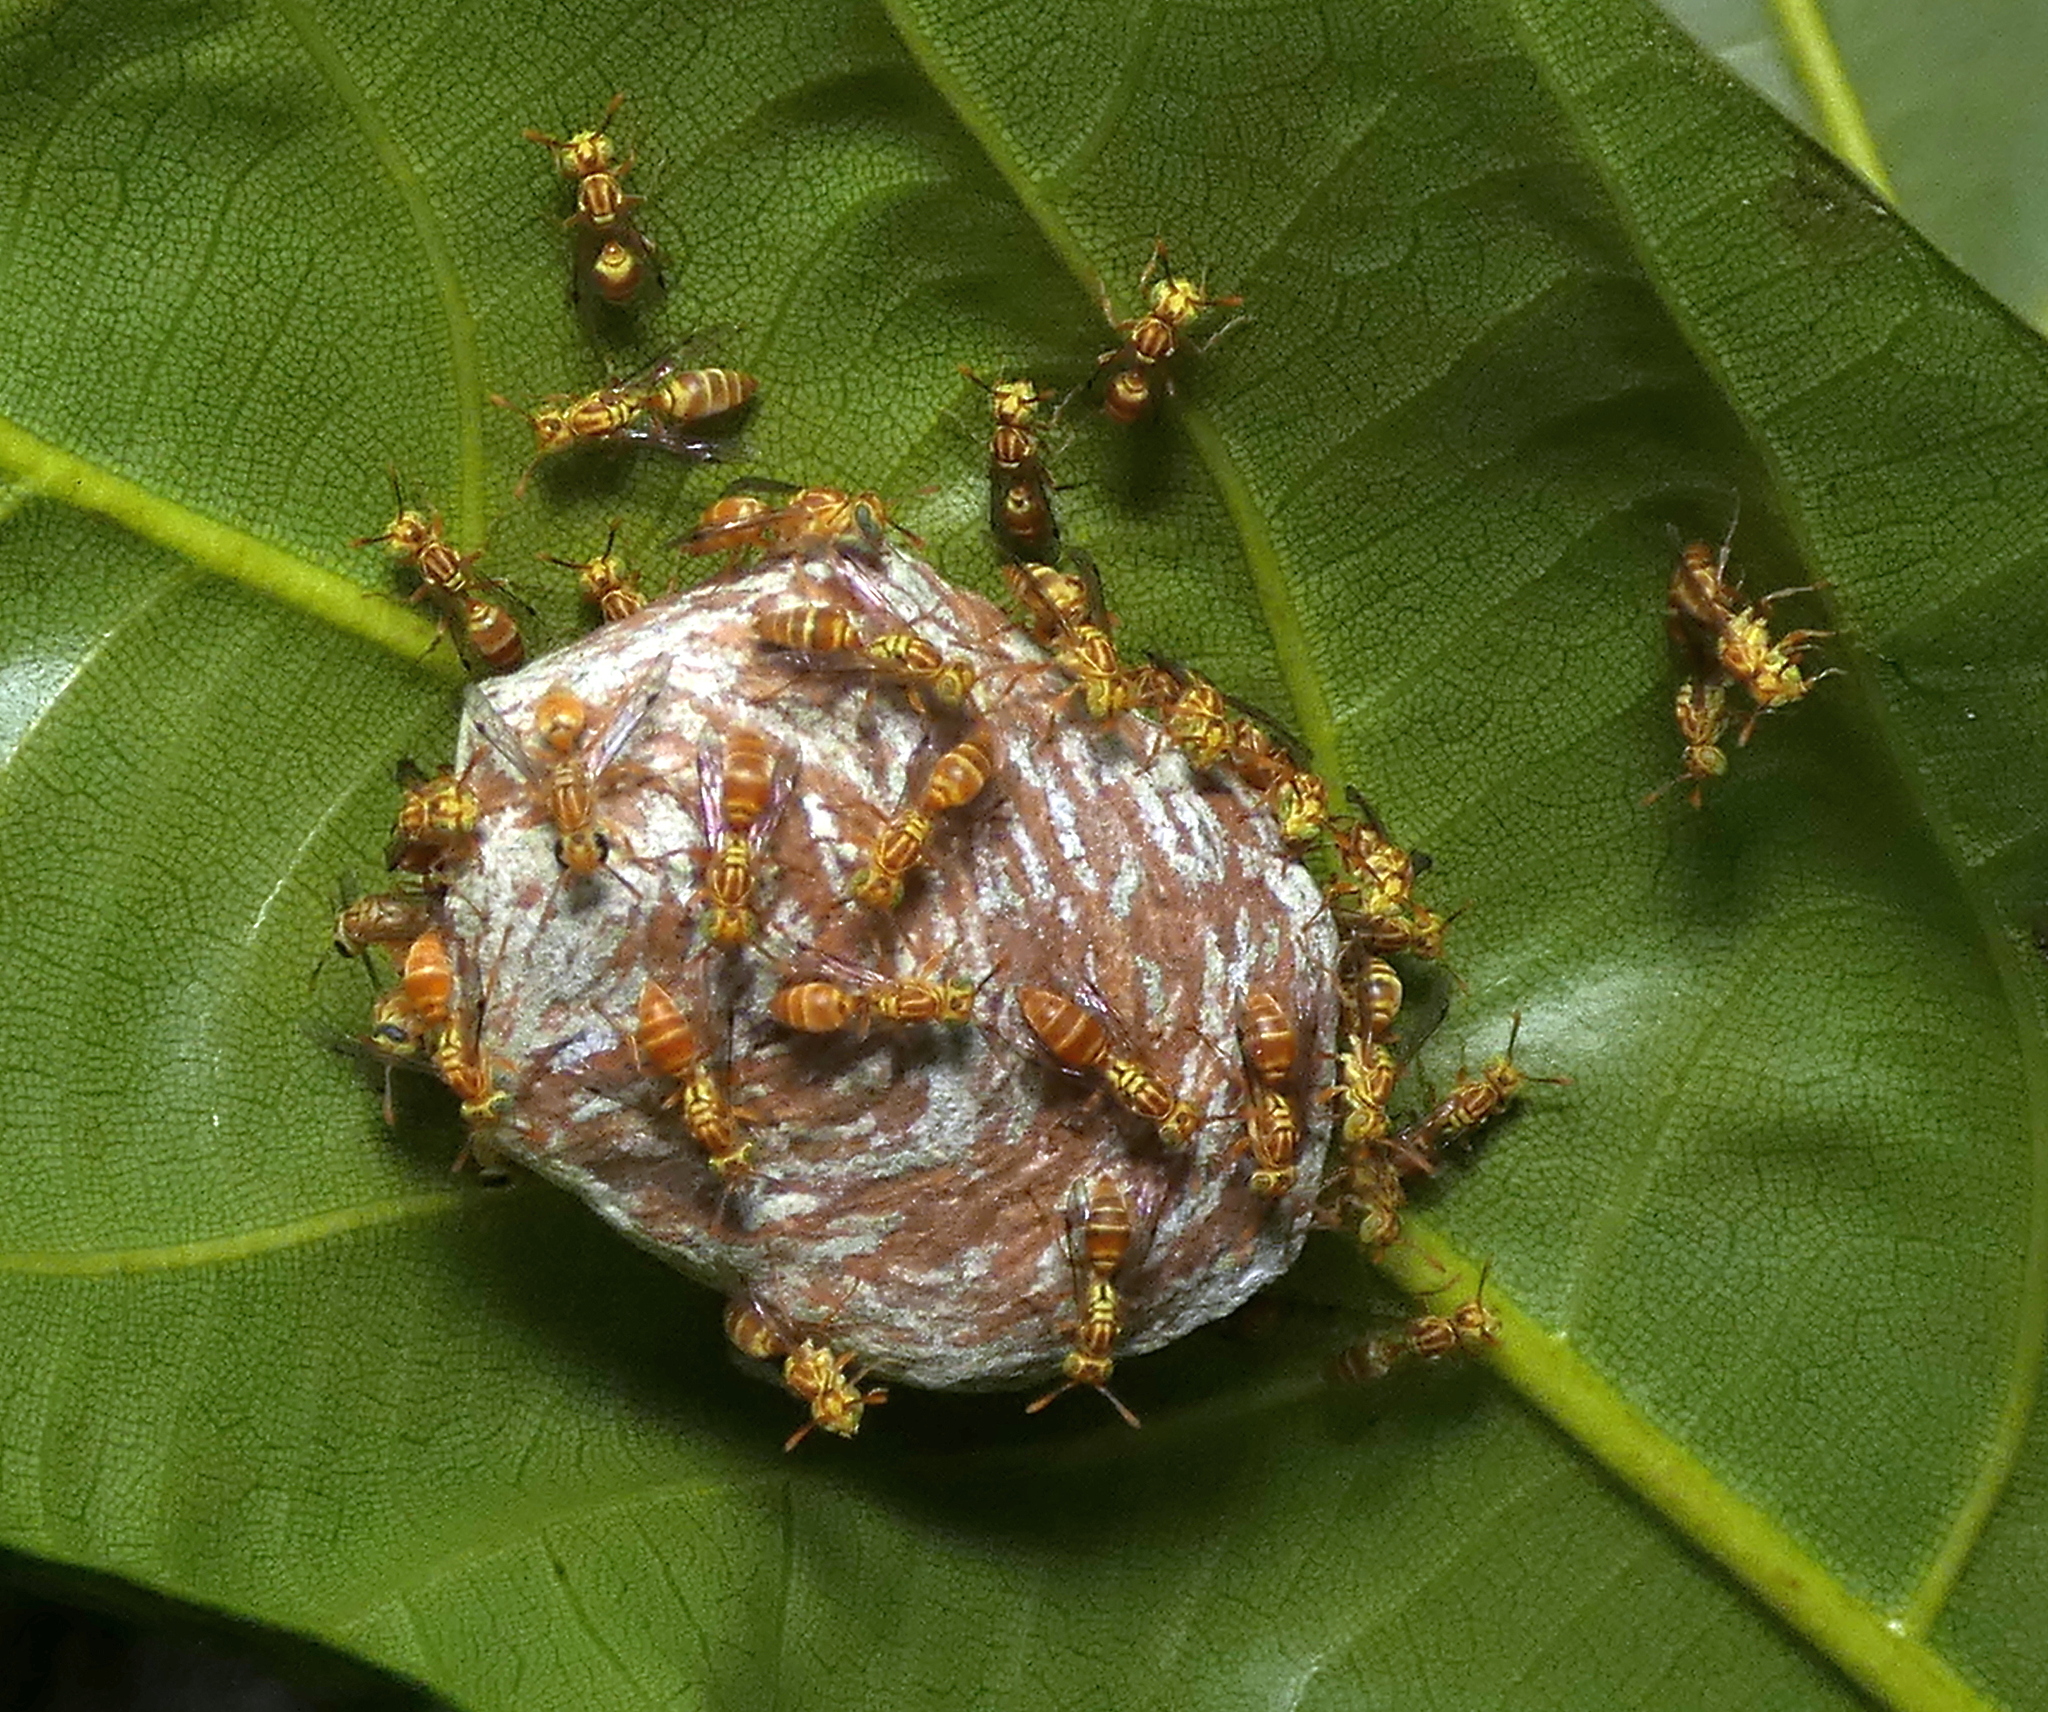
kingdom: Animalia
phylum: Arthropoda
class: Insecta
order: Hymenoptera
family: Vespidae
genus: Protopolybia
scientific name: Protopolybia potiguara
